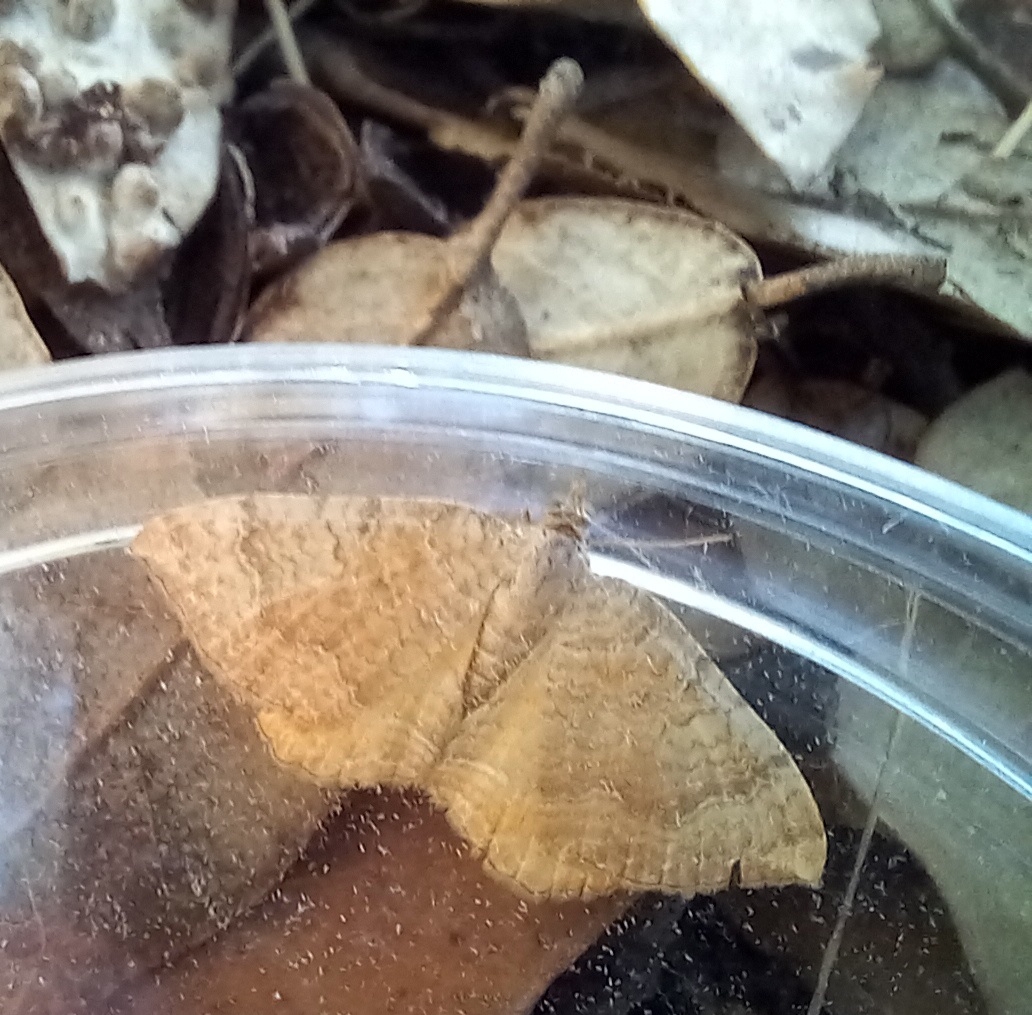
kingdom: Animalia
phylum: Arthropoda
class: Insecta
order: Lepidoptera
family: Geometridae
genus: Camptogramma
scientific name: Camptogramma bilineata
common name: Yellow shell
